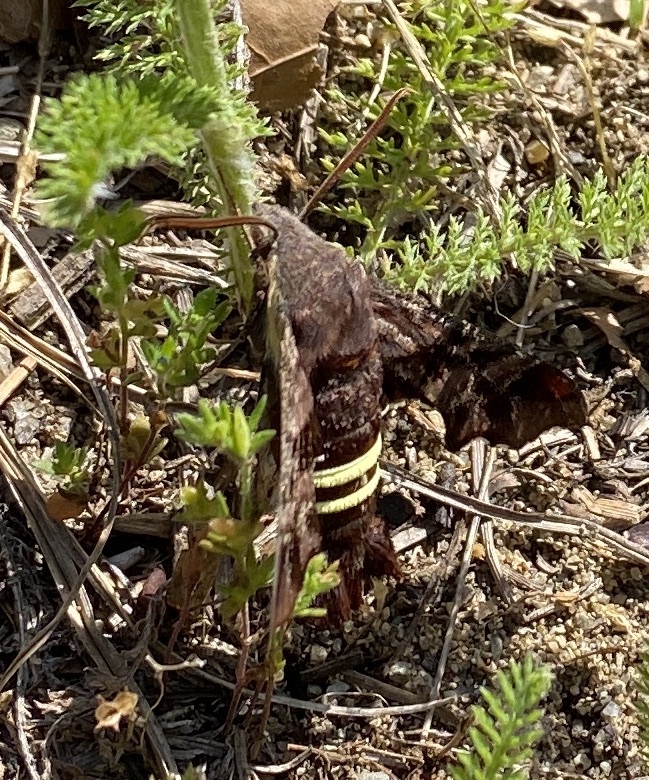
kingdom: Animalia
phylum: Arthropoda
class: Insecta
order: Lepidoptera
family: Sphingidae
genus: Amphion
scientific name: Amphion floridensis
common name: Nessus sphinx
